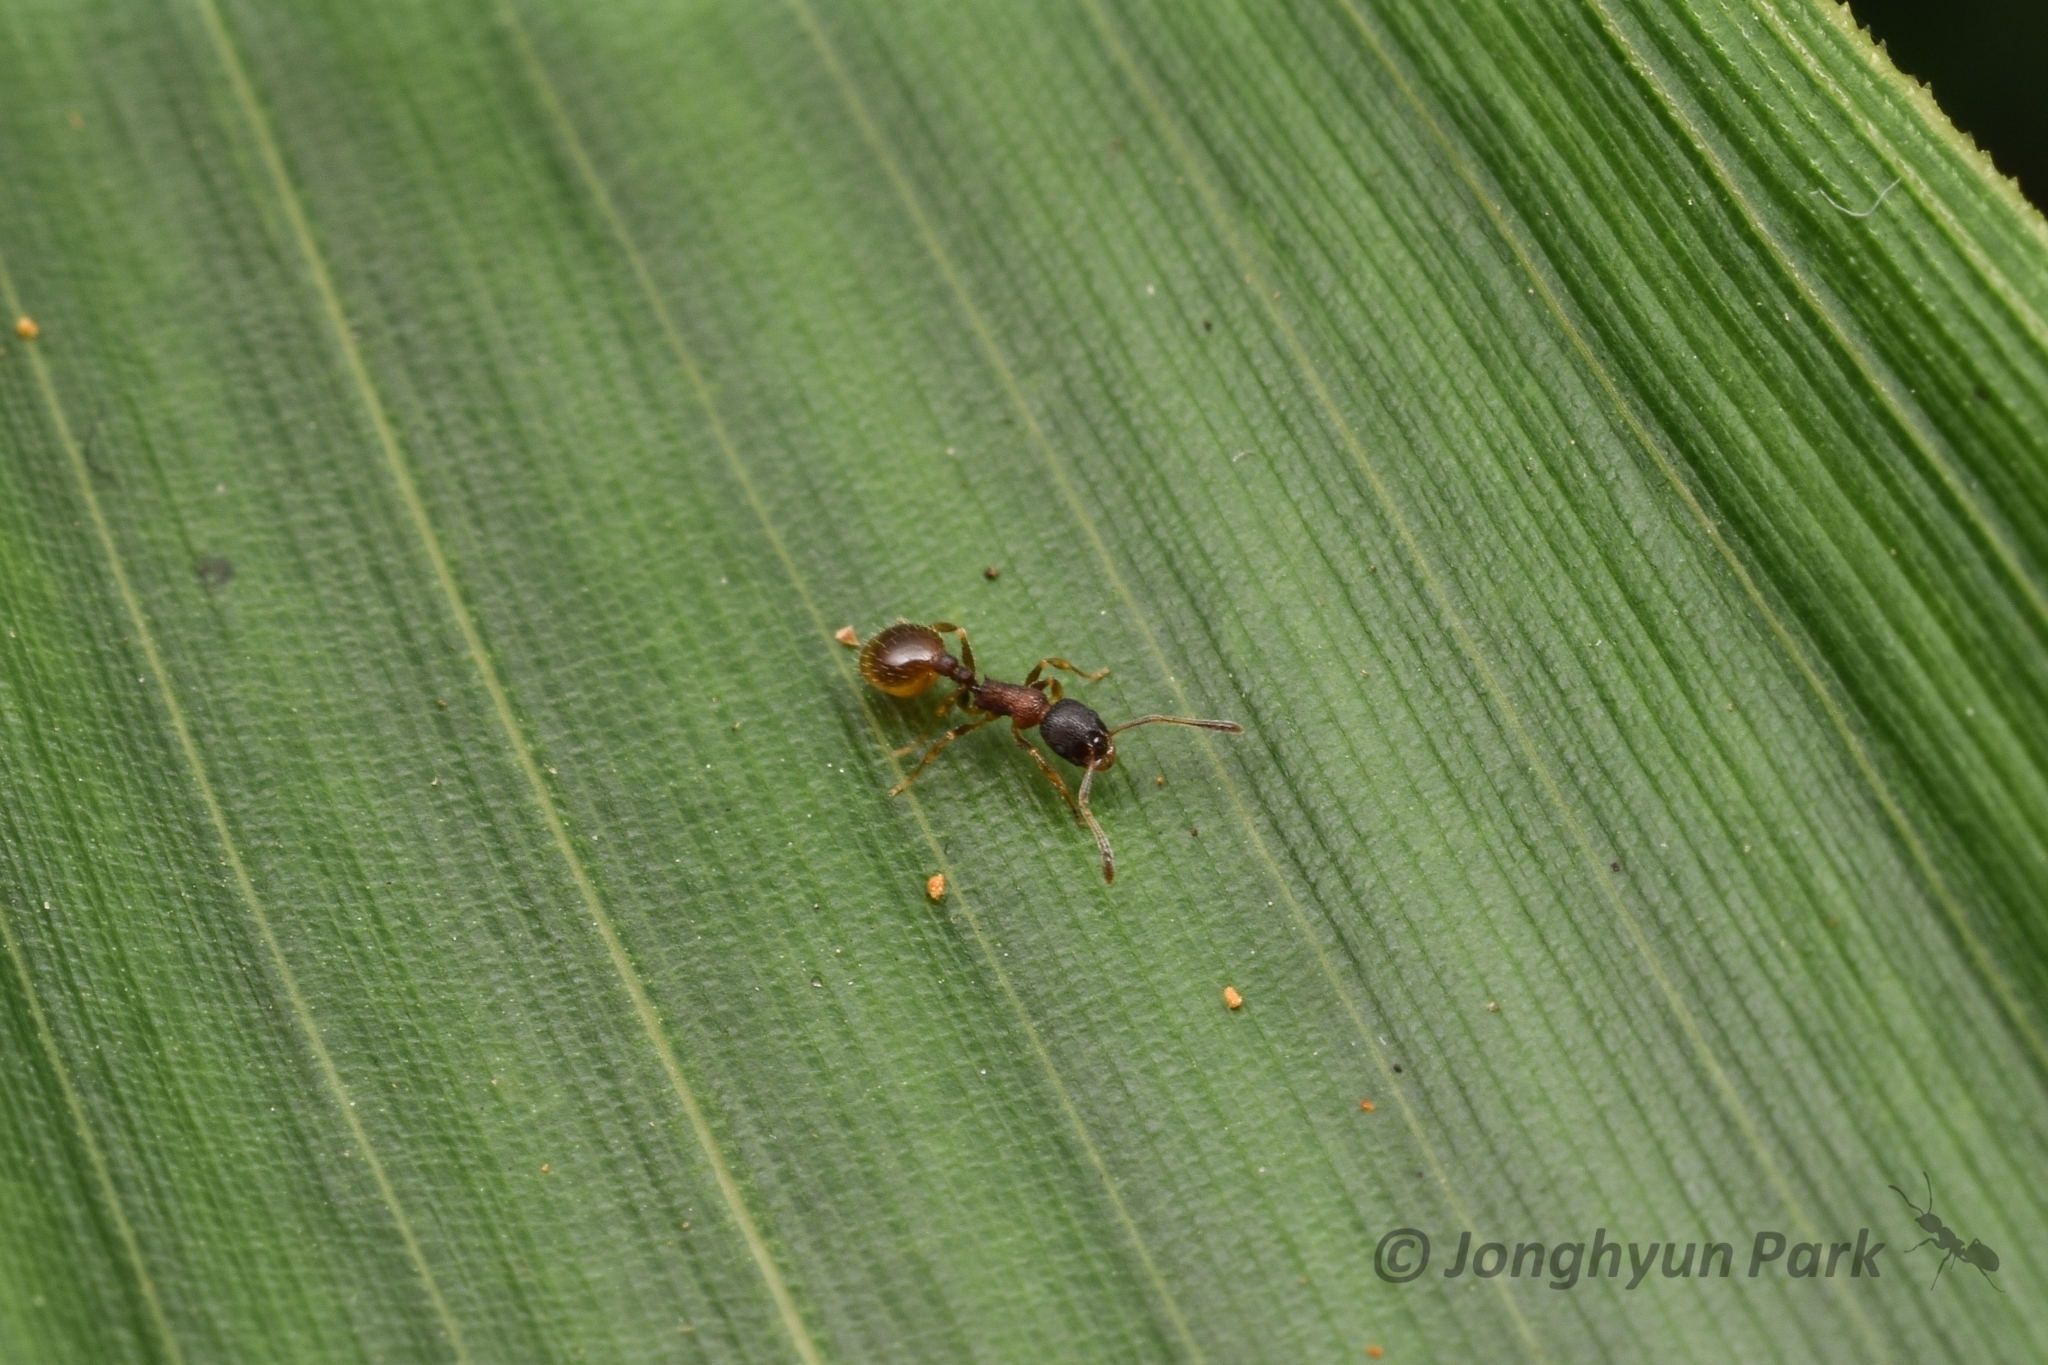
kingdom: Animalia
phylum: Arthropoda
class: Insecta
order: Hymenoptera
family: Formicidae
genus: Temnothorax
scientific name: Temnothorax
